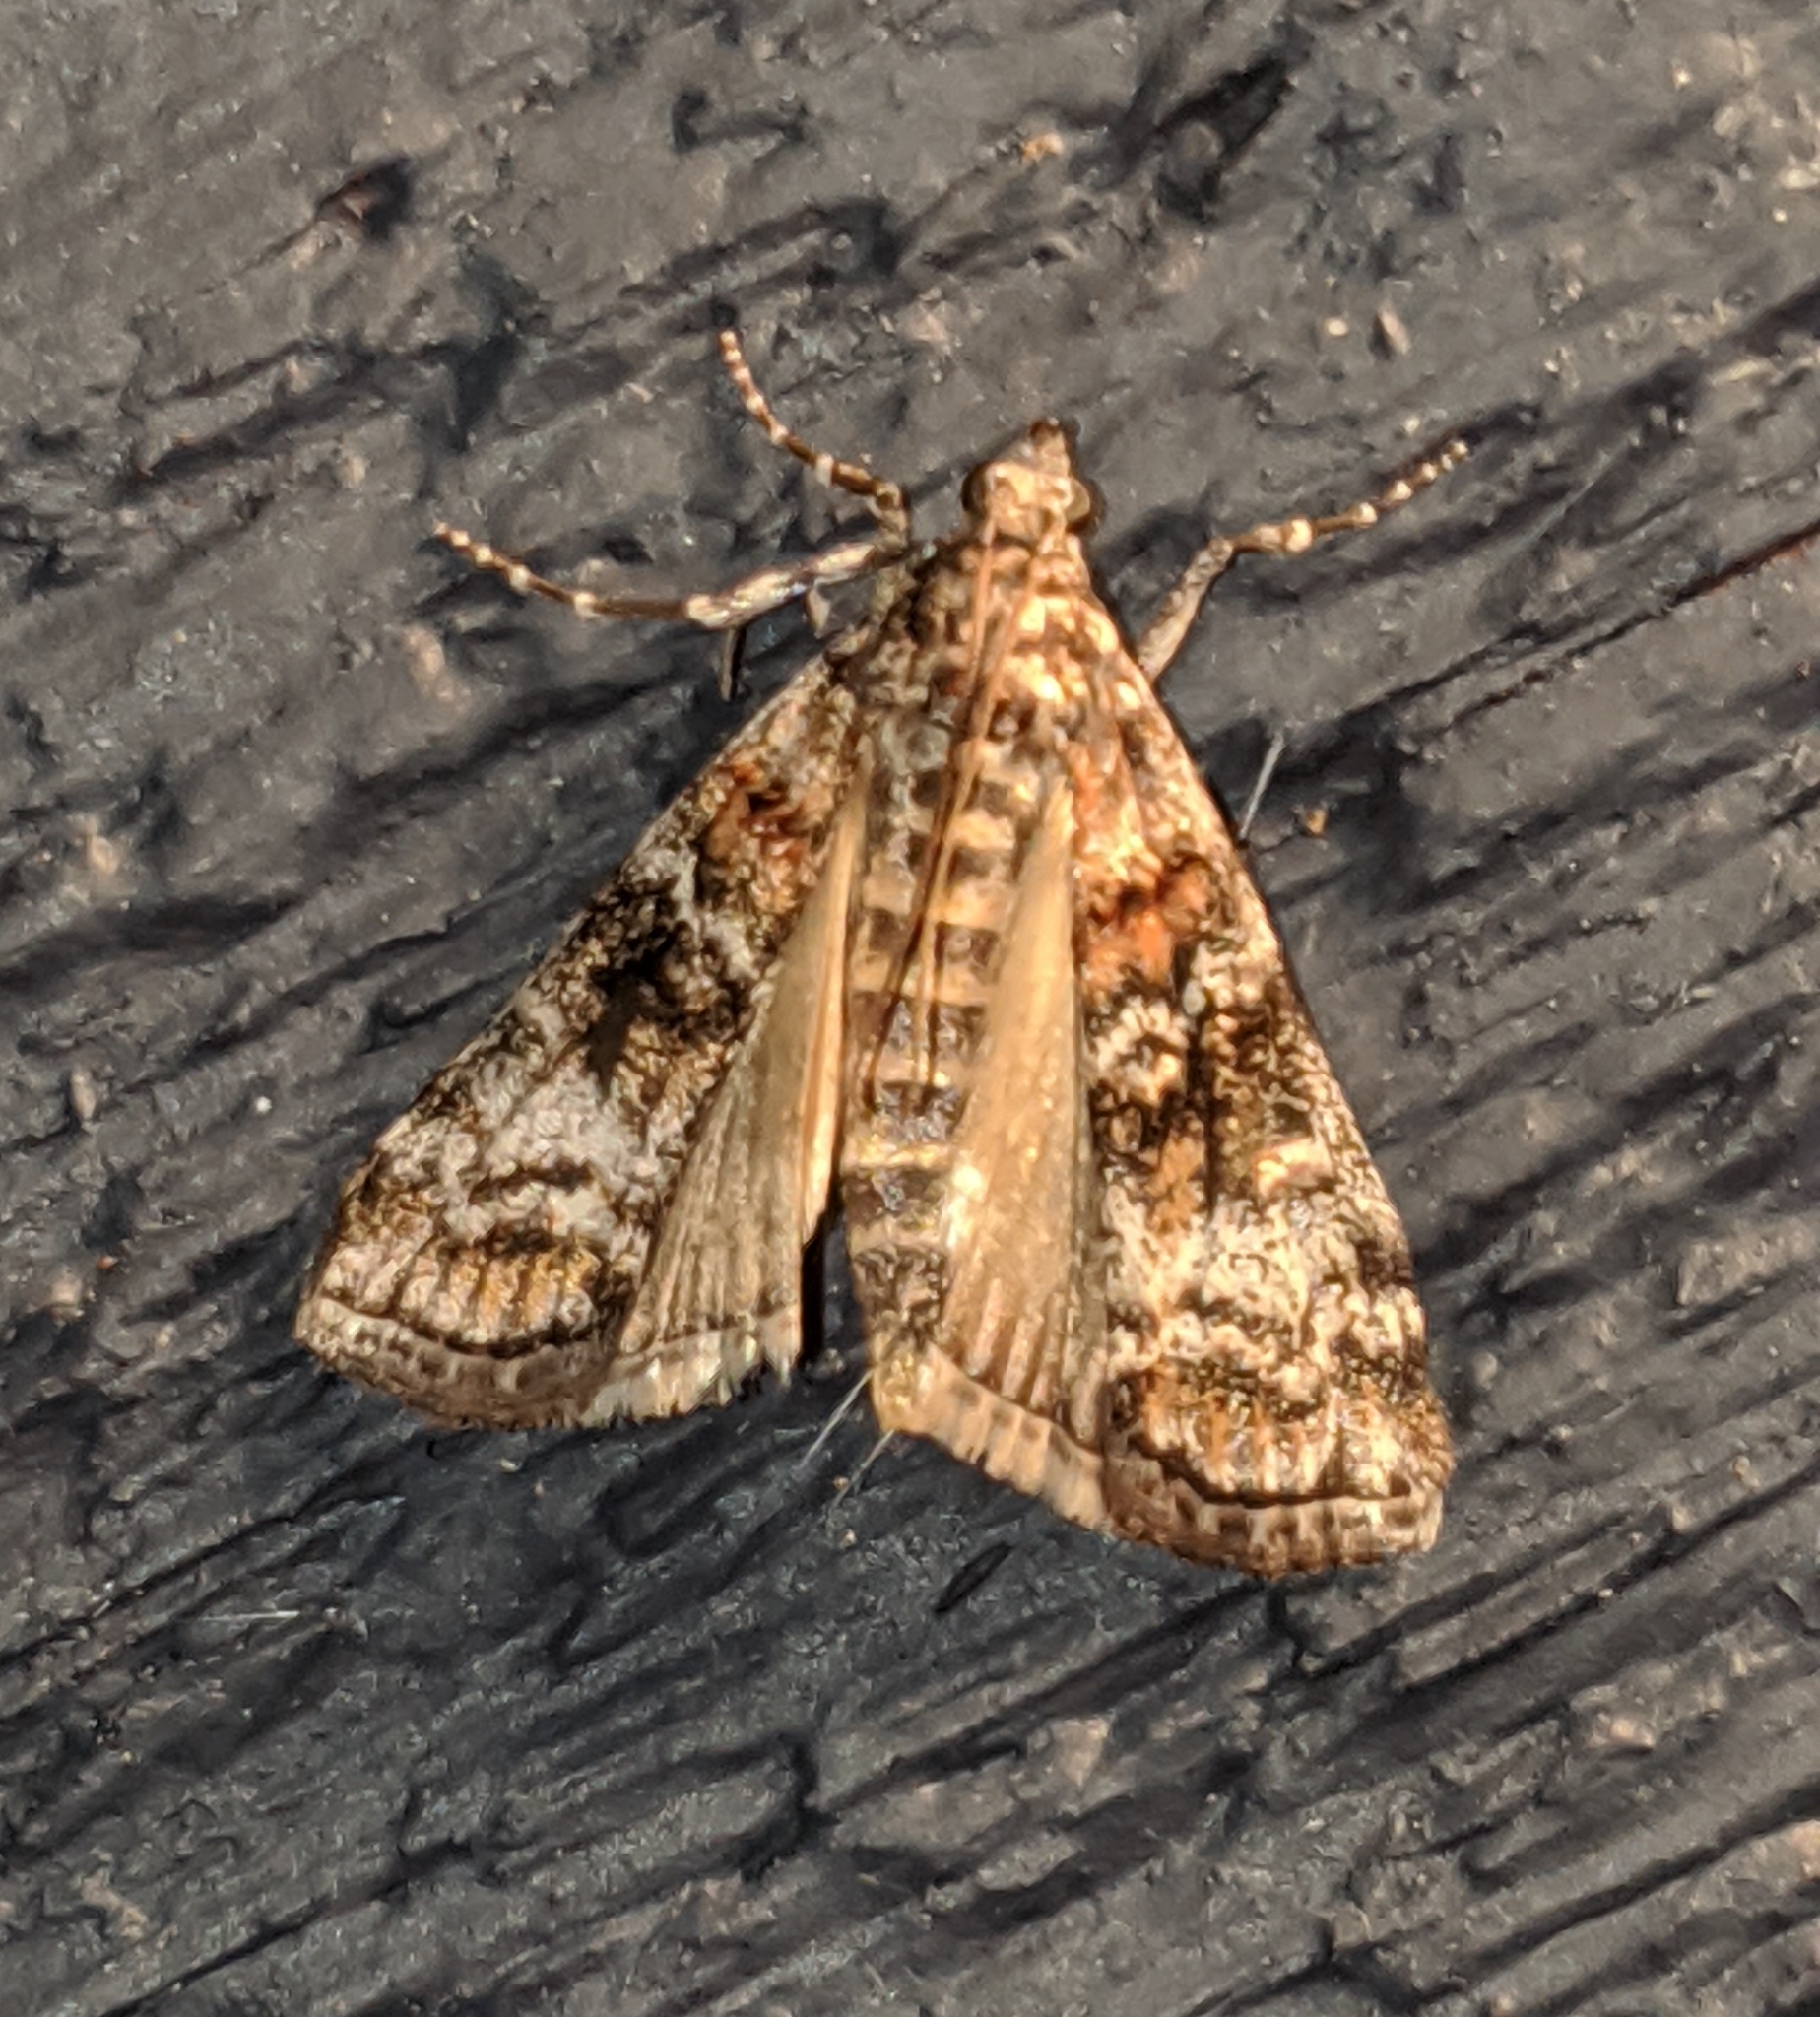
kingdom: Animalia
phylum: Arthropoda
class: Insecta
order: Lepidoptera
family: Pyralidae
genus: Dioryctria
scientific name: Dioryctria banksiella
